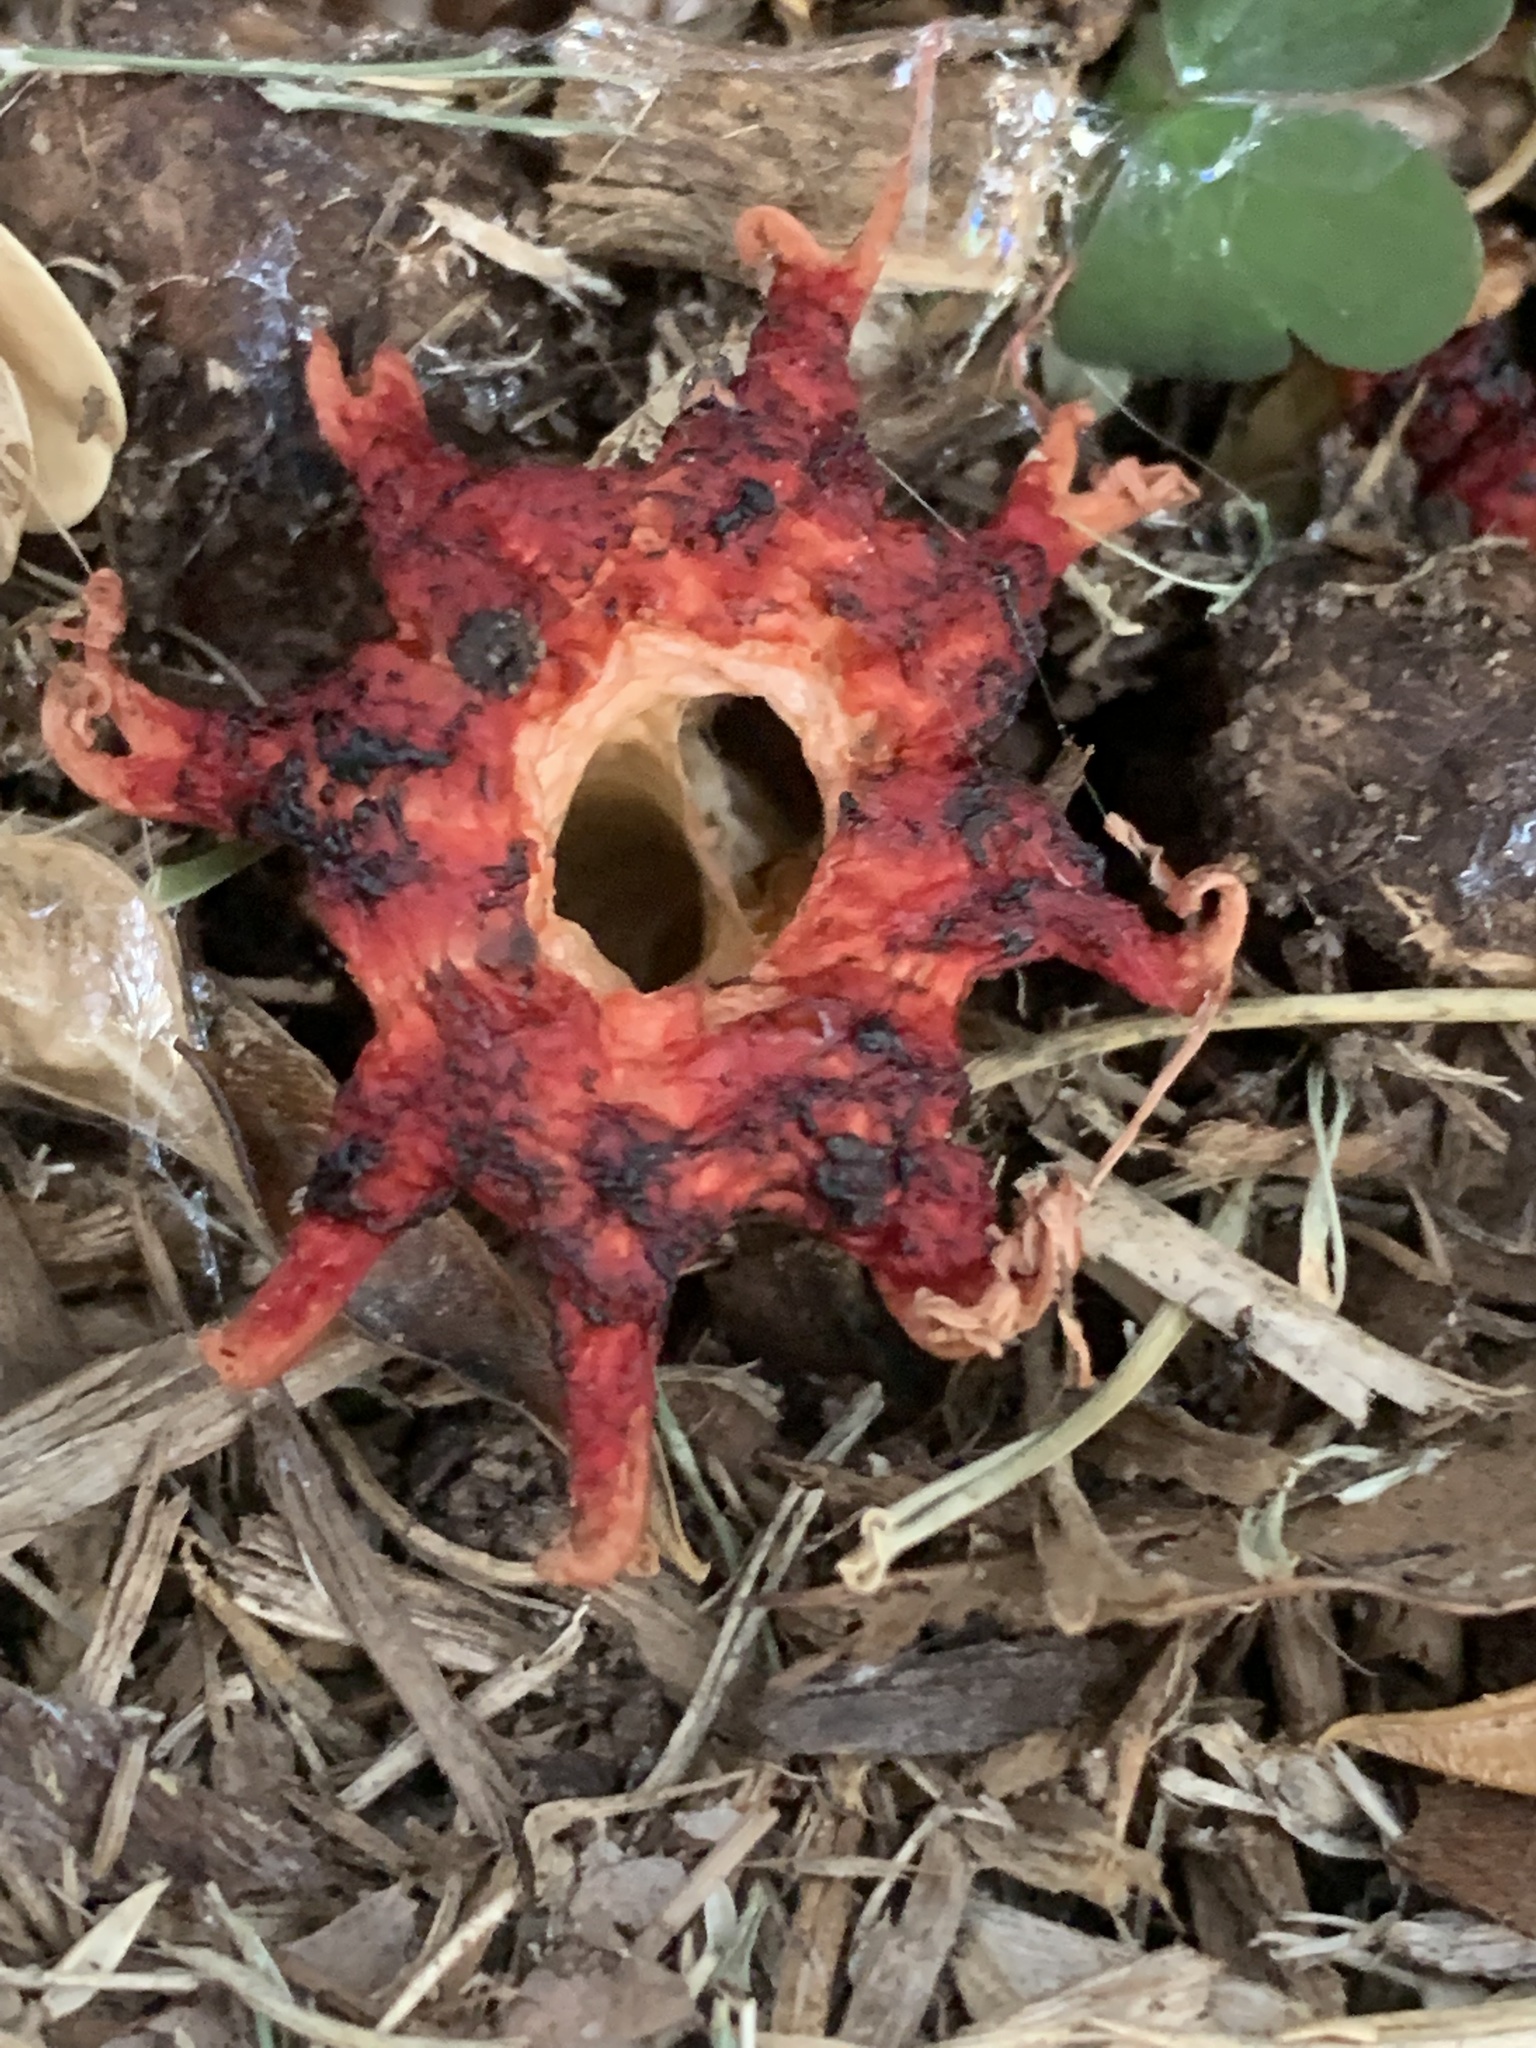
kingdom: Fungi
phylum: Basidiomycota
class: Agaricomycetes
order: Phallales
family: Phallaceae
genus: Aseroe
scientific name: Aseroe rubra
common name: Starfish fungus
